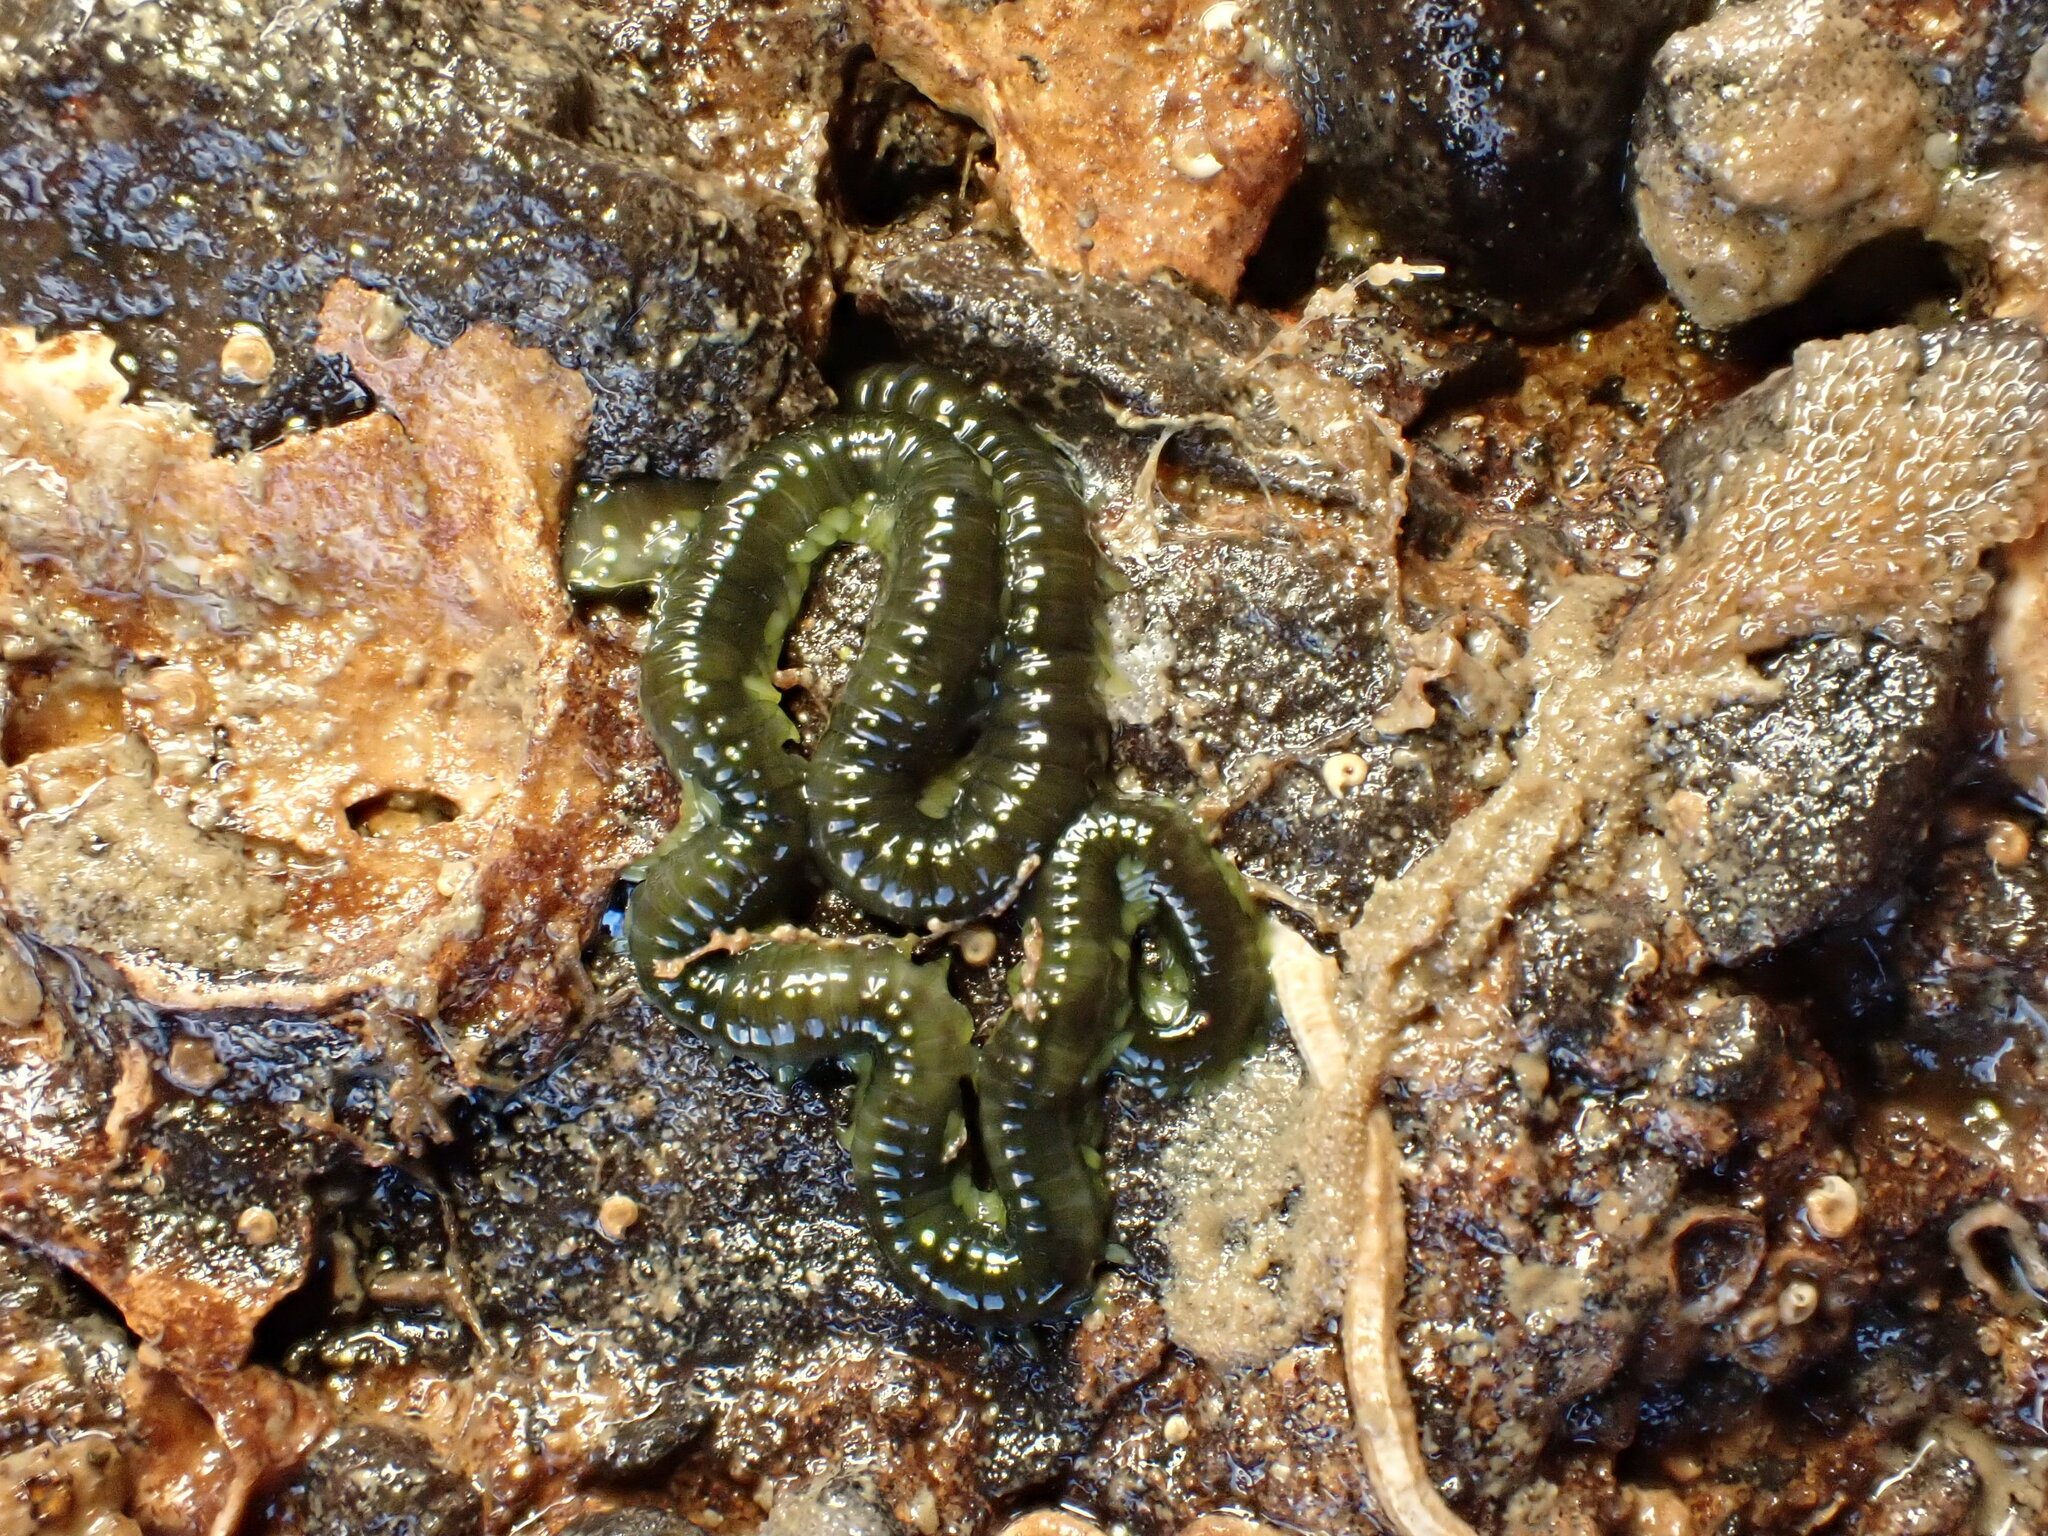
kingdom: Animalia
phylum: Annelida
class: Polychaeta
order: Phyllodocida
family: Phyllodocidae
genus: Eulalia
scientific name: Eulalia microphylla
